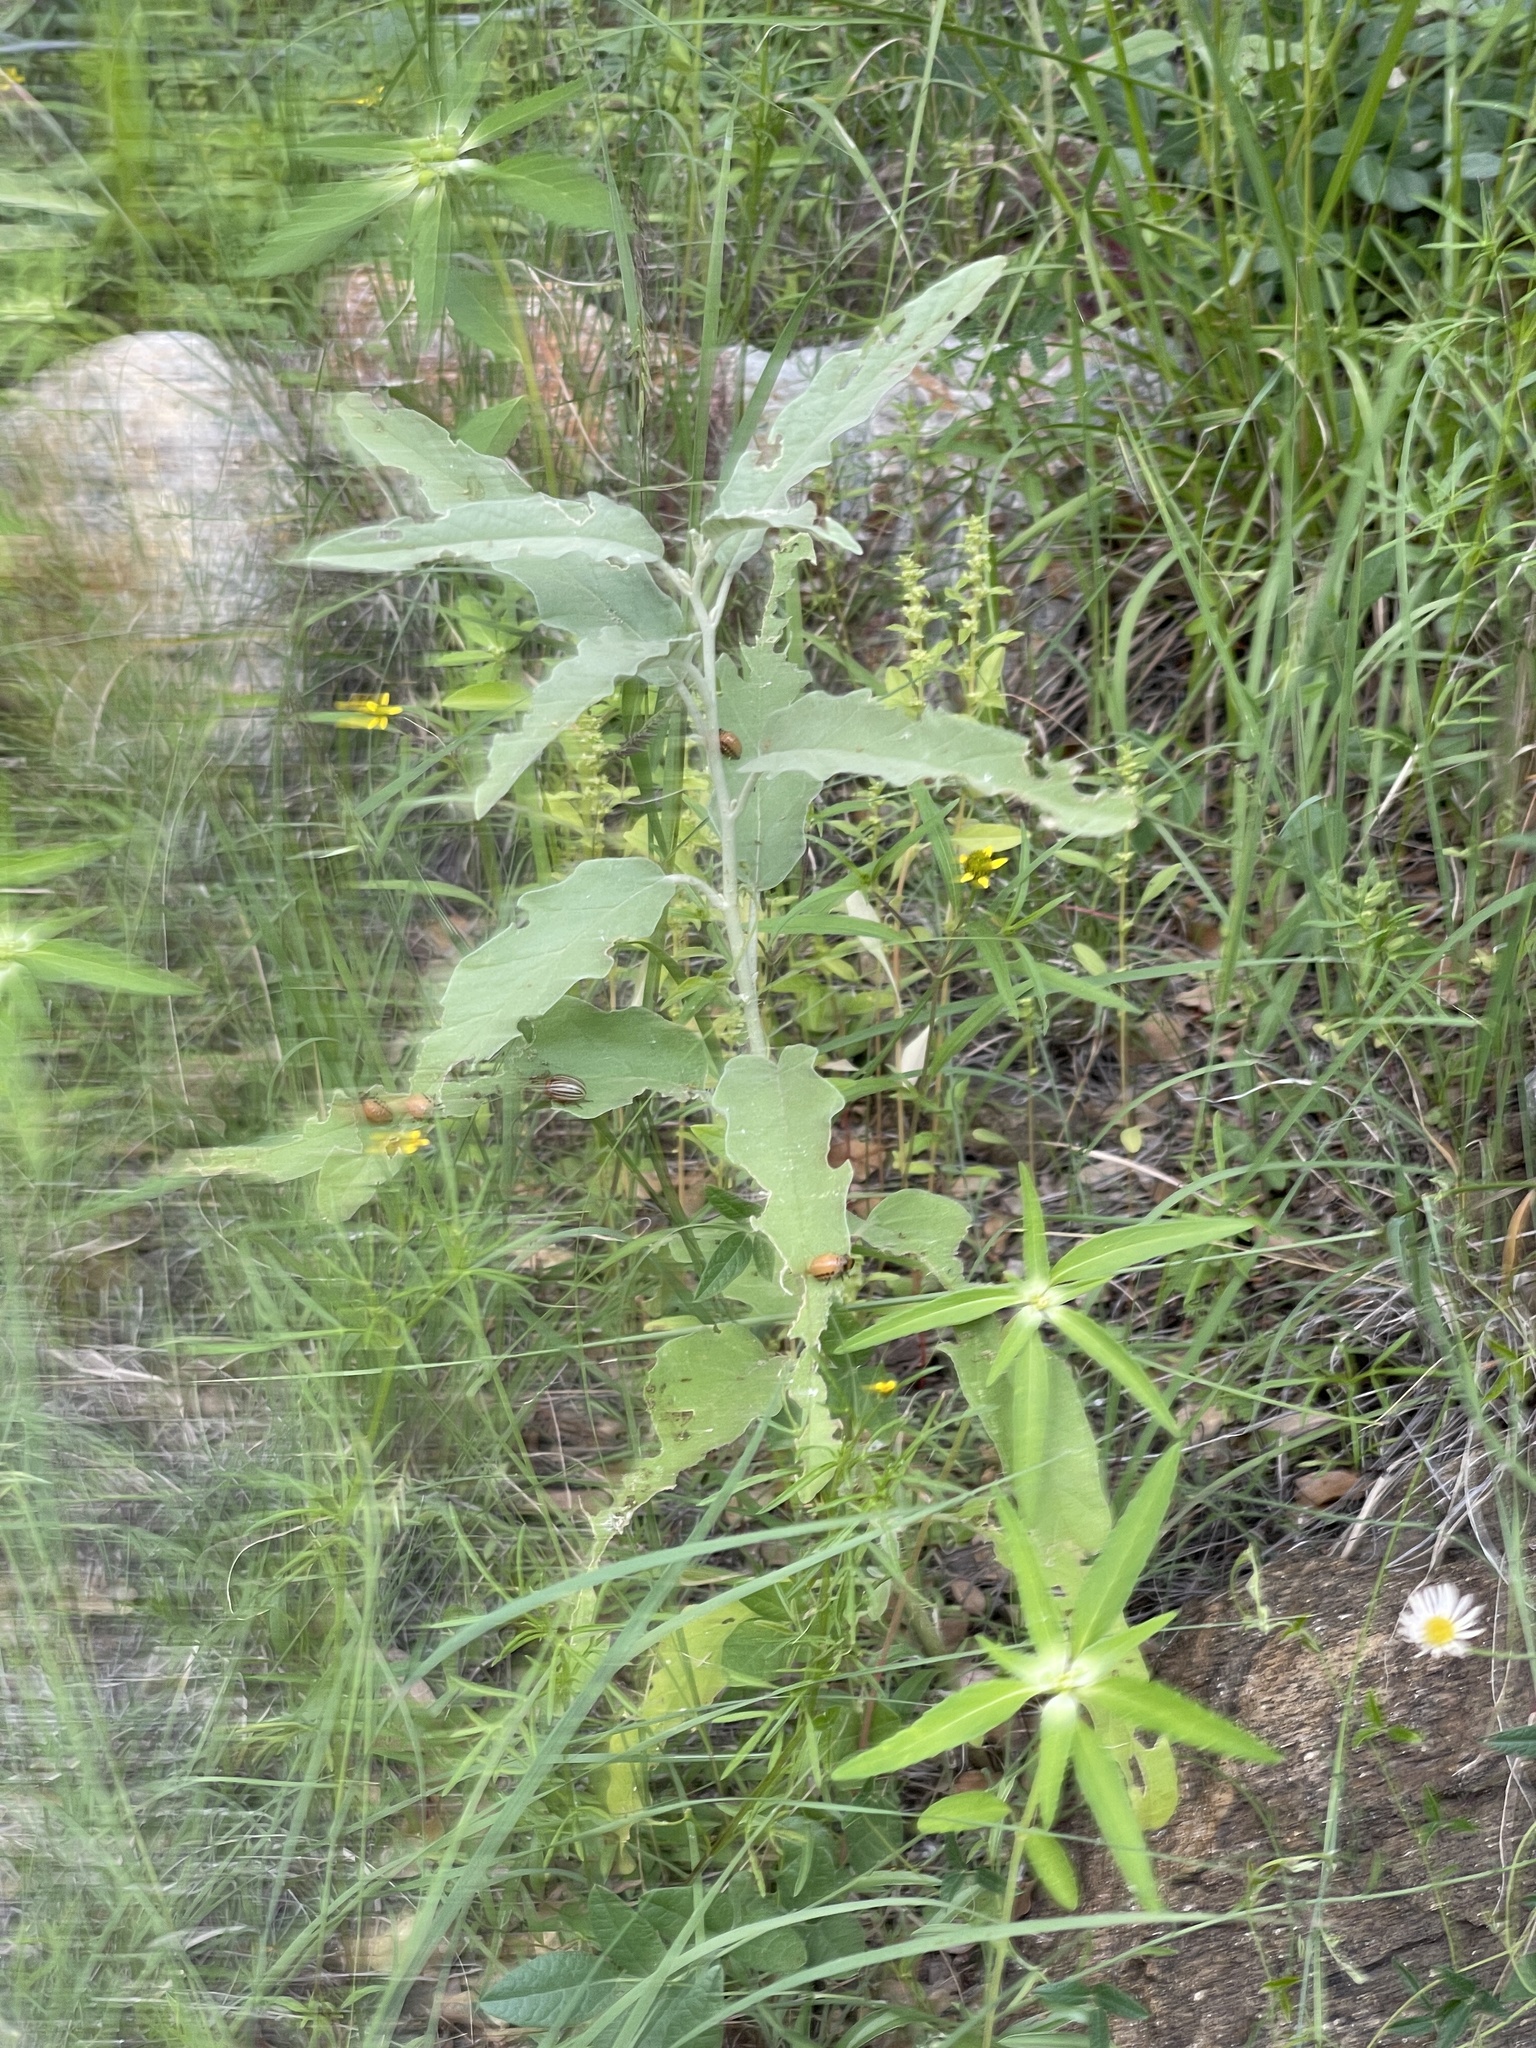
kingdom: Plantae
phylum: Tracheophyta
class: Magnoliopsida
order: Solanales
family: Solanaceae
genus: Solanum
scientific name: Solanum elaeagnifolium
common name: Silverleaf nightshade
